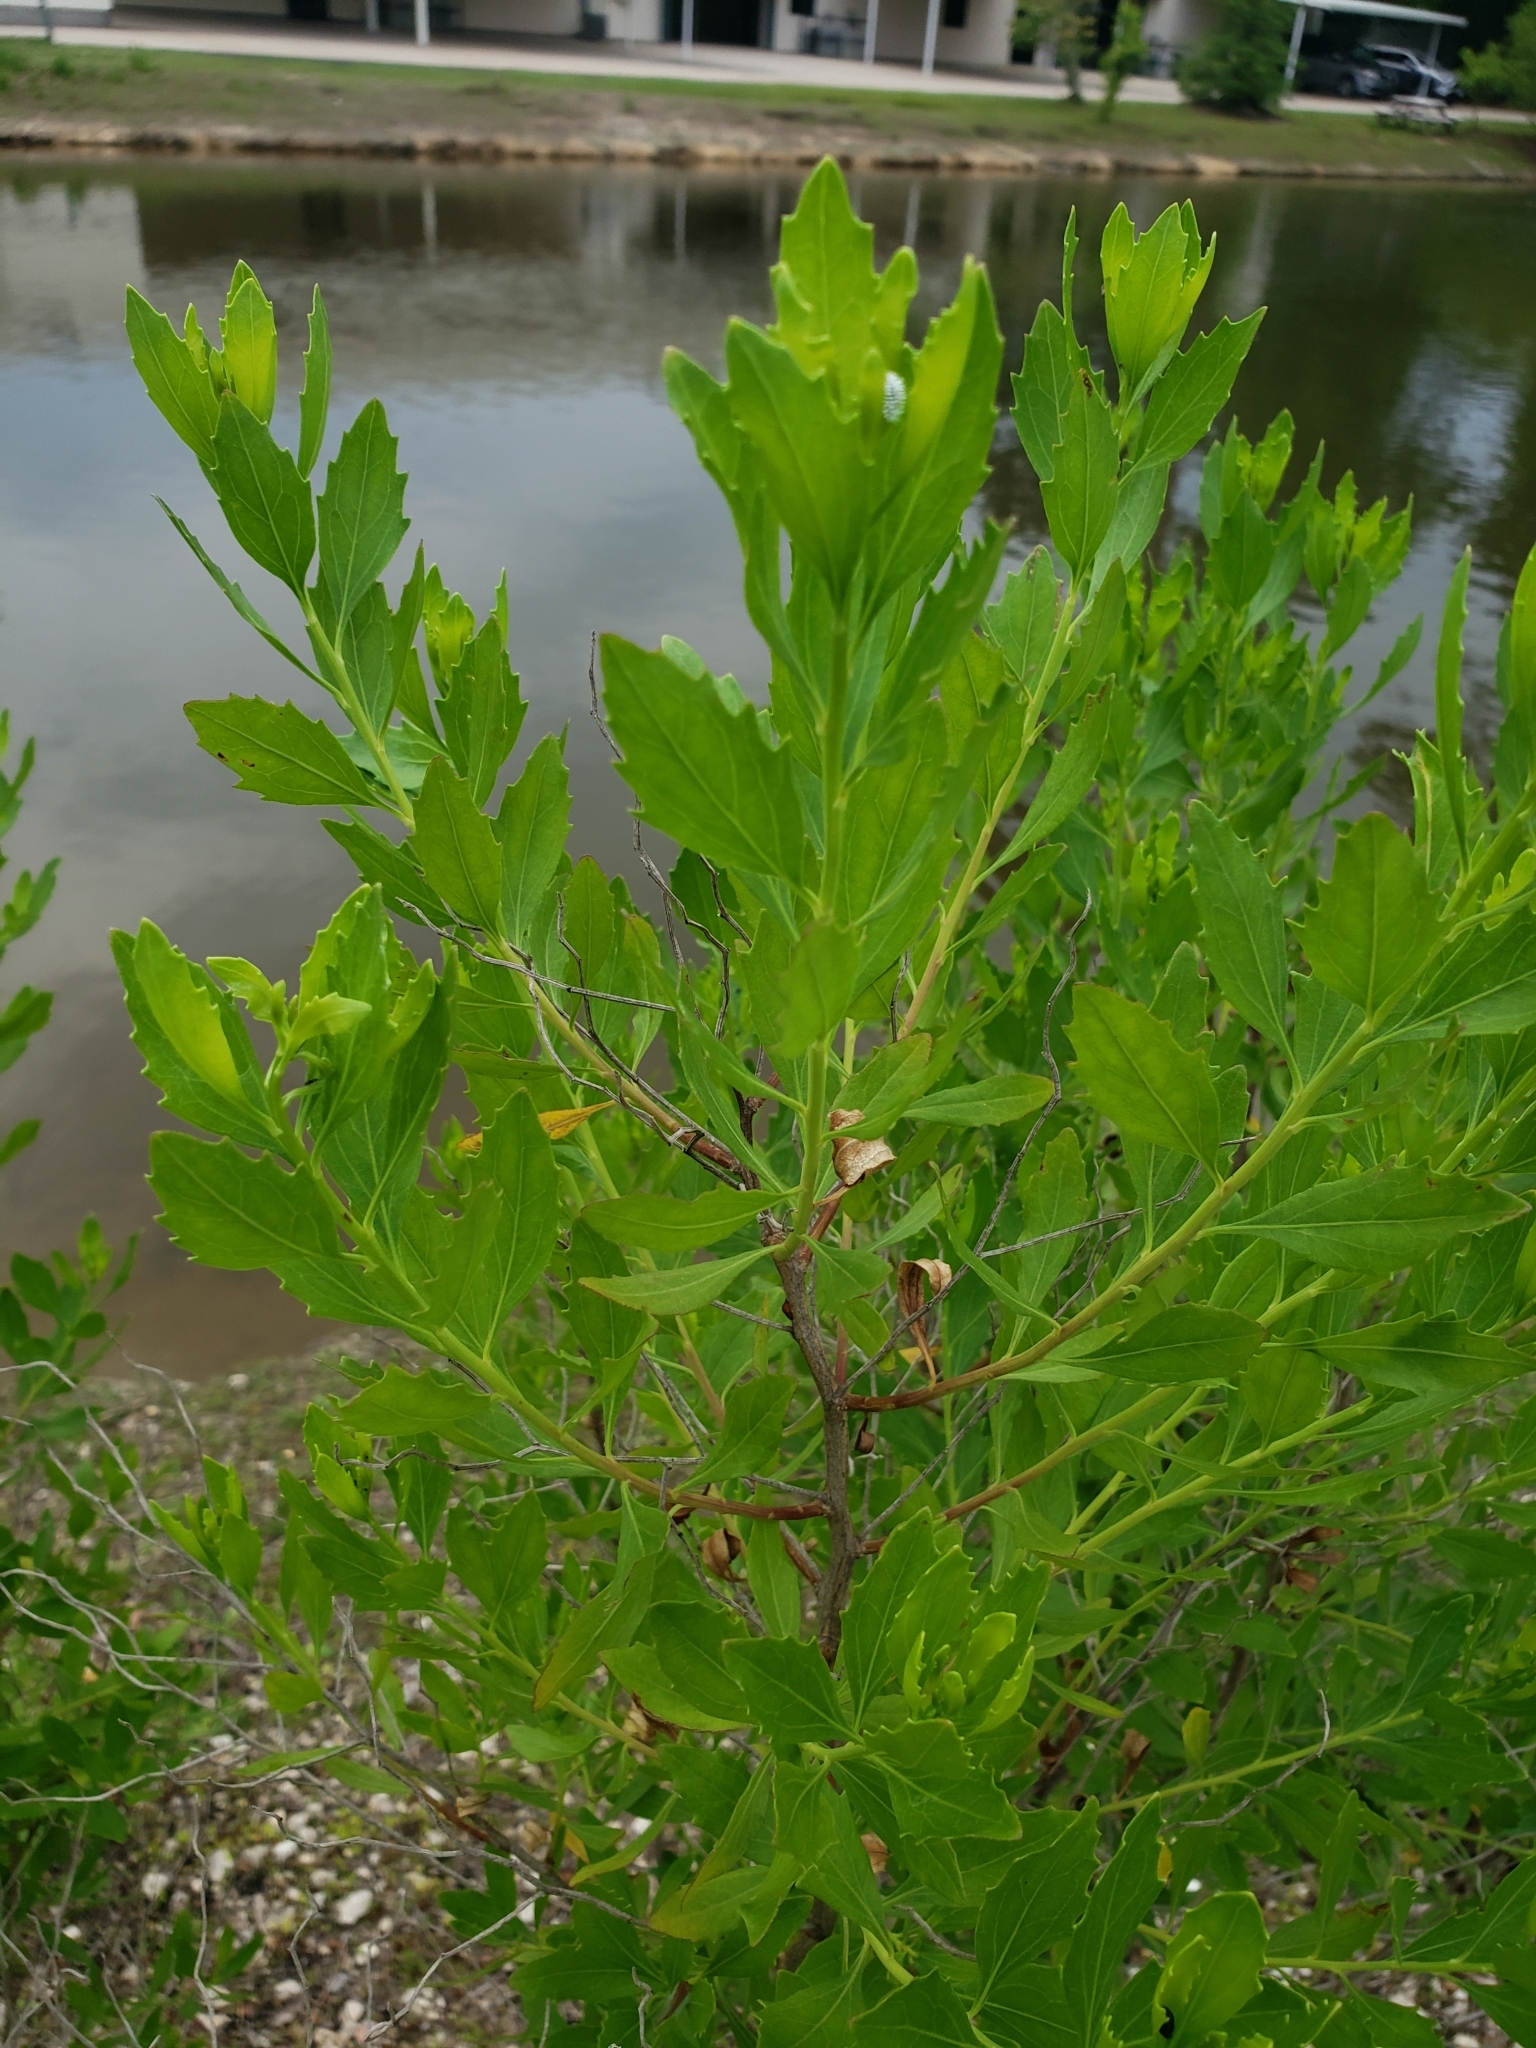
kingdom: Plantae
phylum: Tracheophyta
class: Magnoliopsida
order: Asterales
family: Asteraceae
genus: Baccharis
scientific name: Baccharis halimifolia
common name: Eastern baccharis
